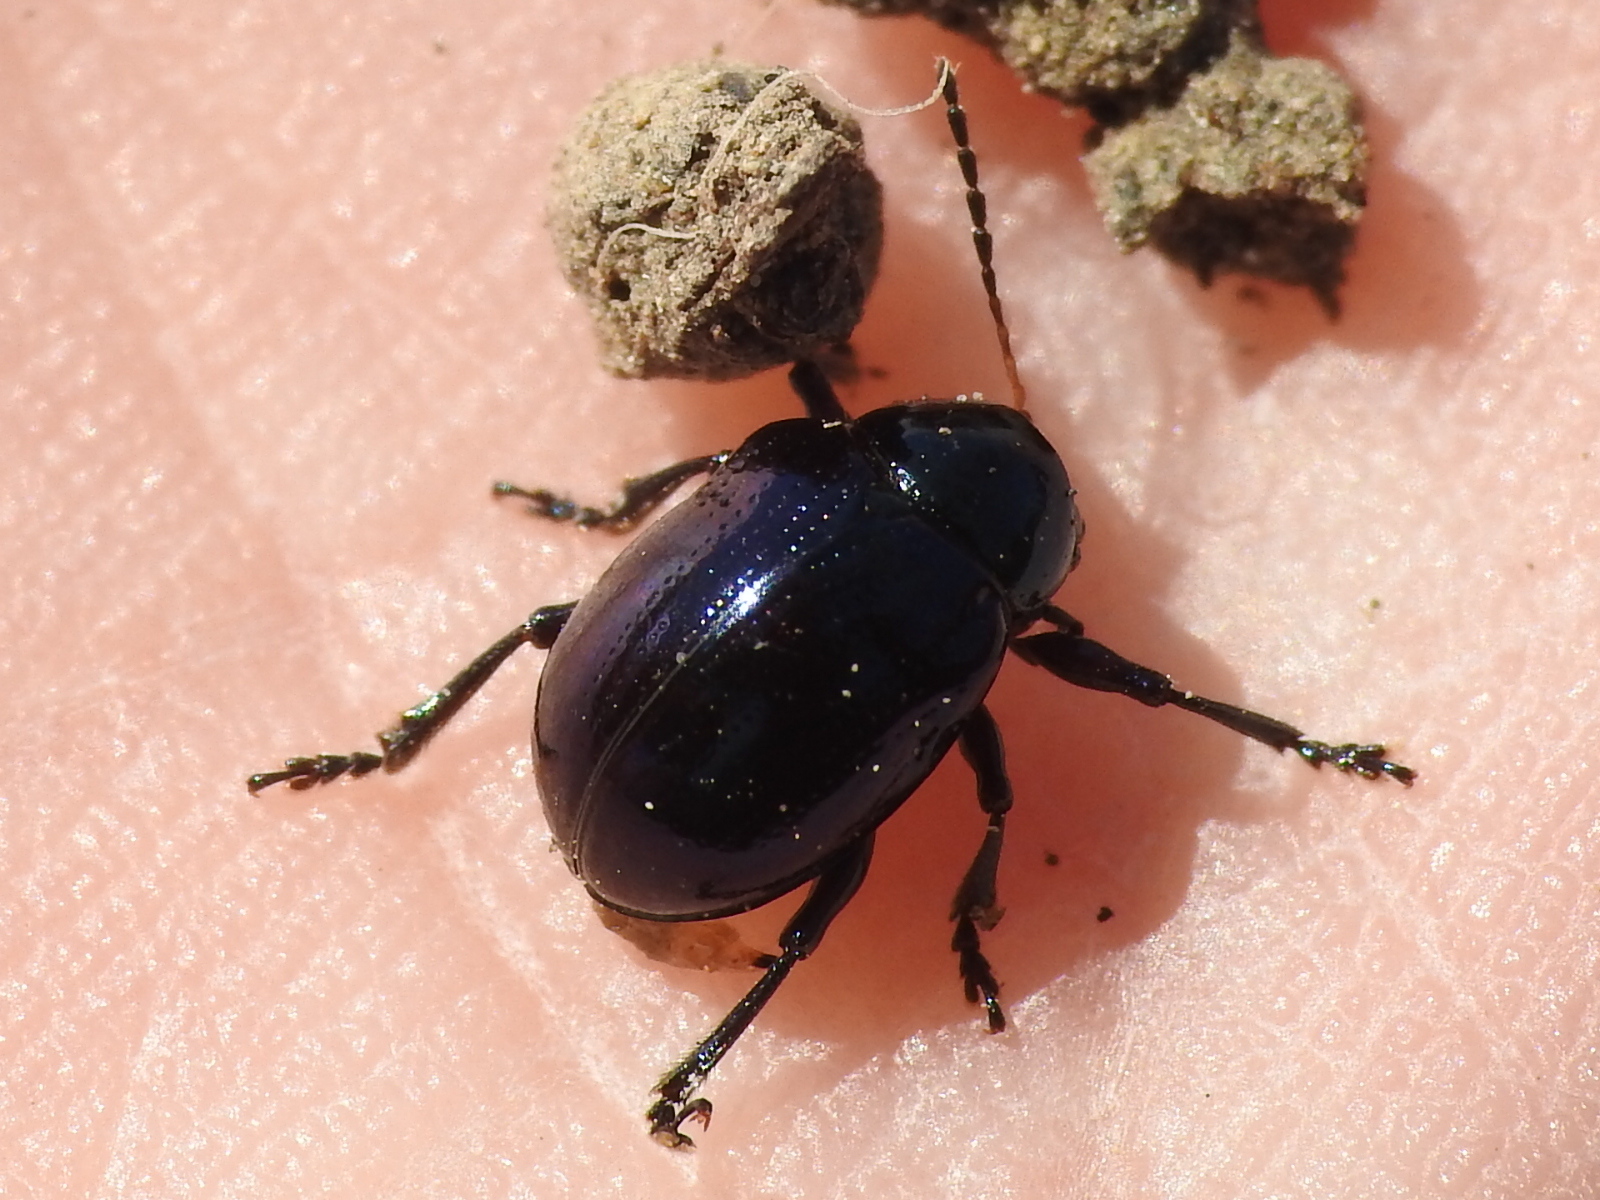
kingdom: Animalia
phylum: Arthropoda
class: Insecta
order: Coleoptera
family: Chrysomelidae
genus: Typophorus
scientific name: Typophorus nigritus
